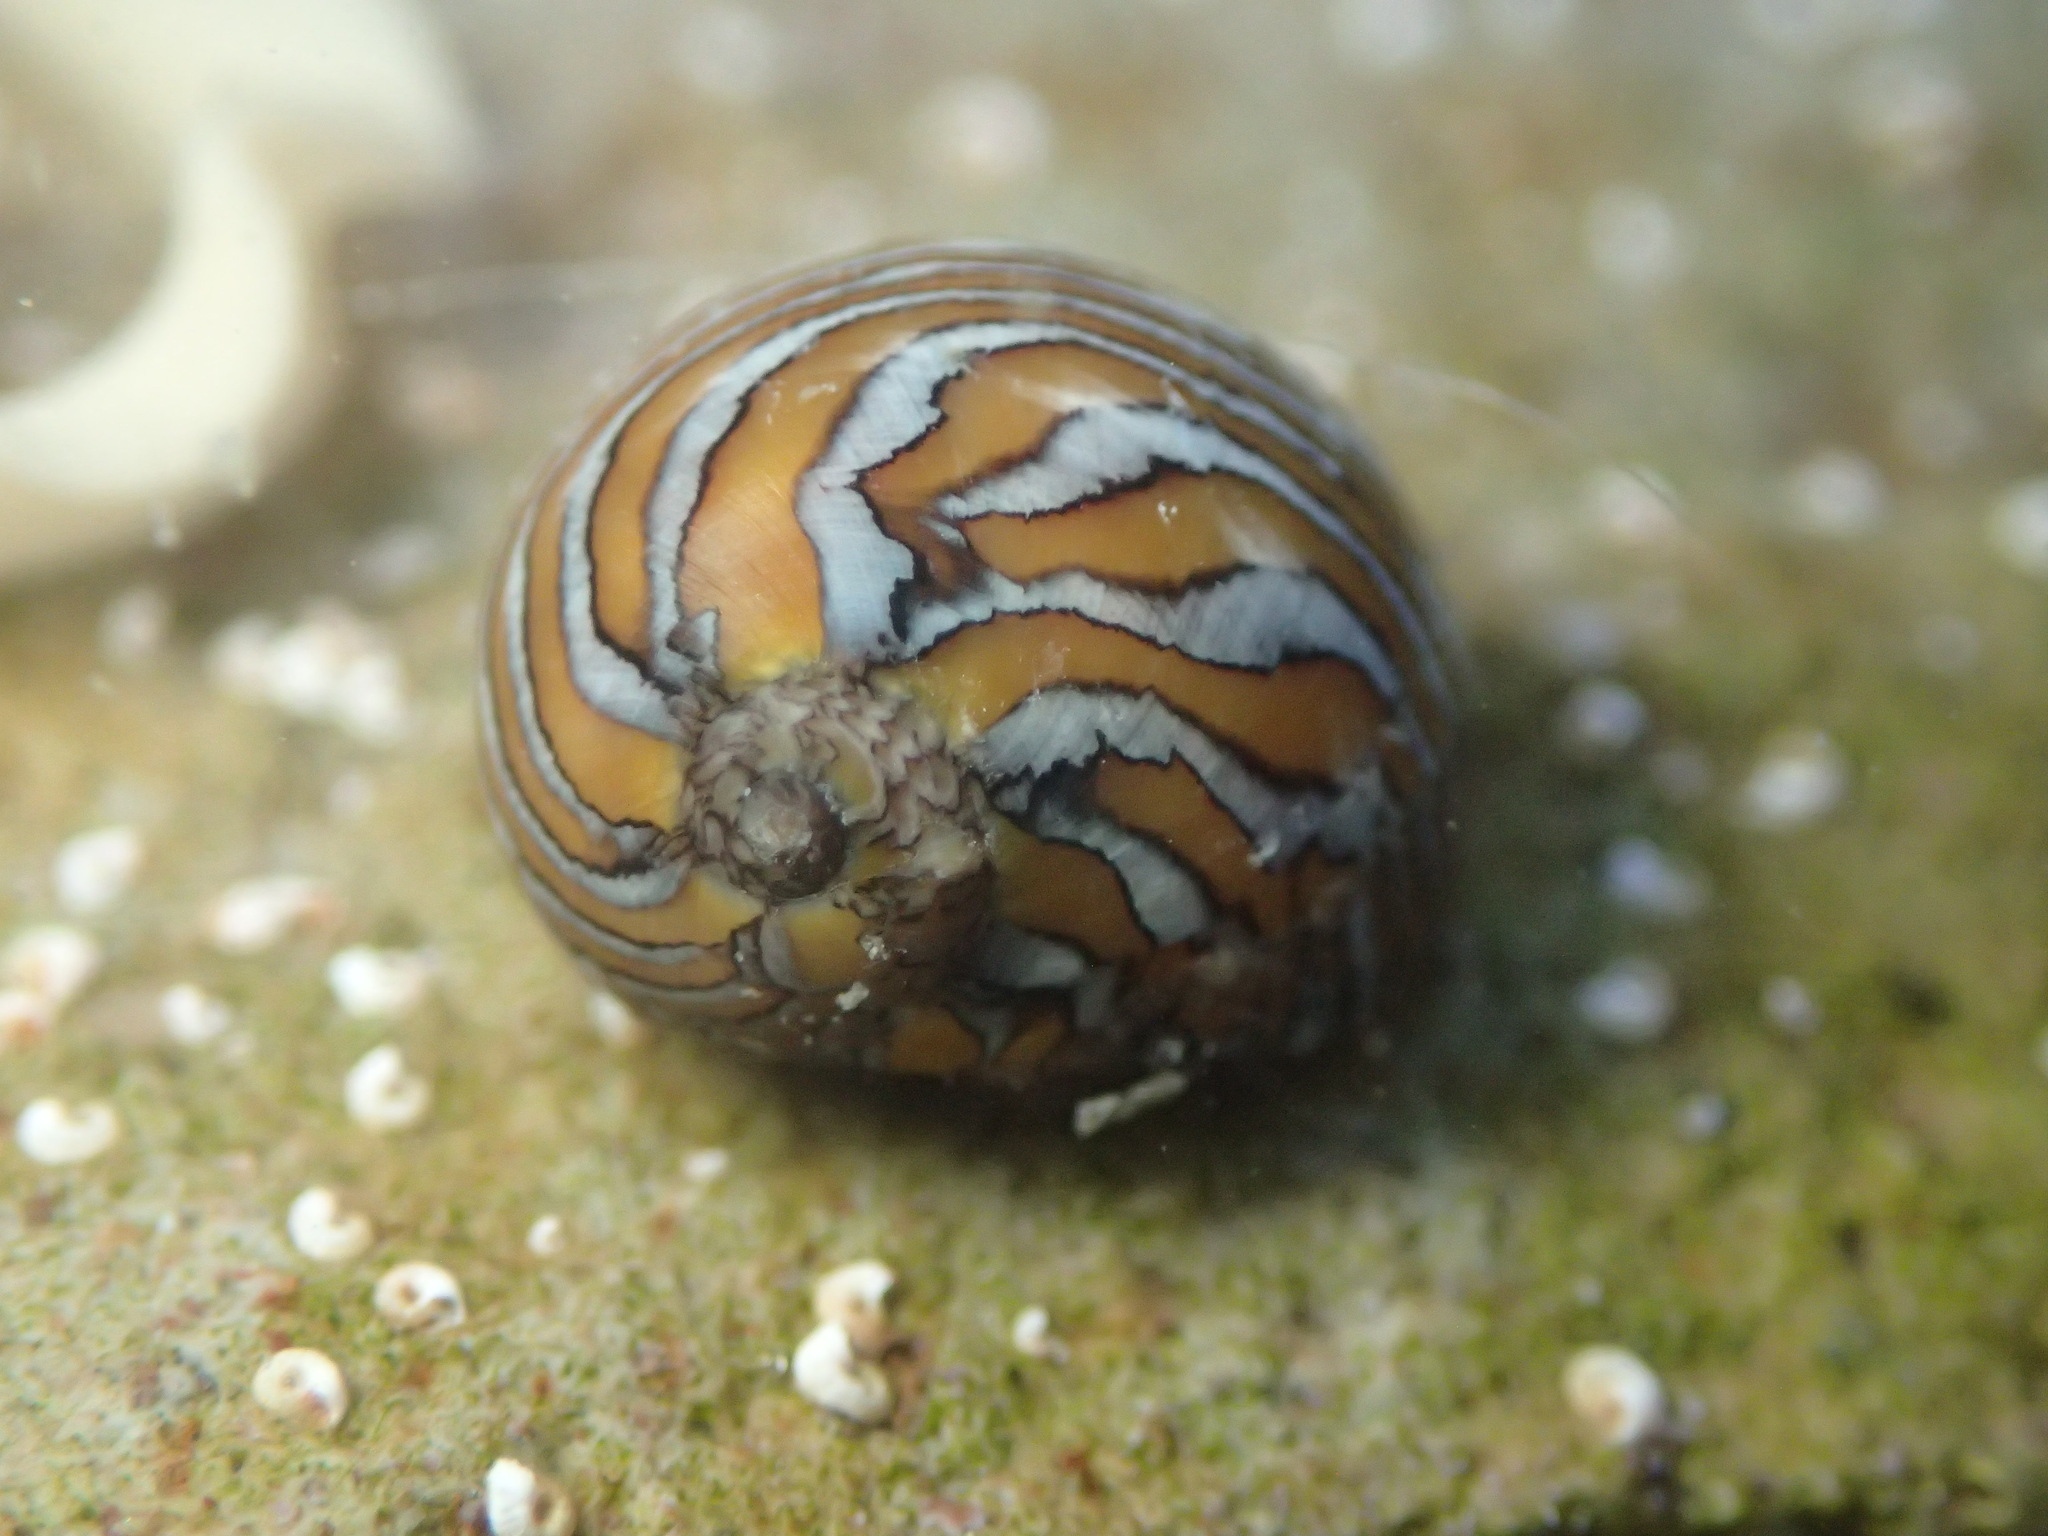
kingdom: Animalia
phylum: Mollusca
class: Gastropoda
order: Cycloneritida
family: Neritidae
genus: Vitta
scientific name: Vitta luteofasciata
